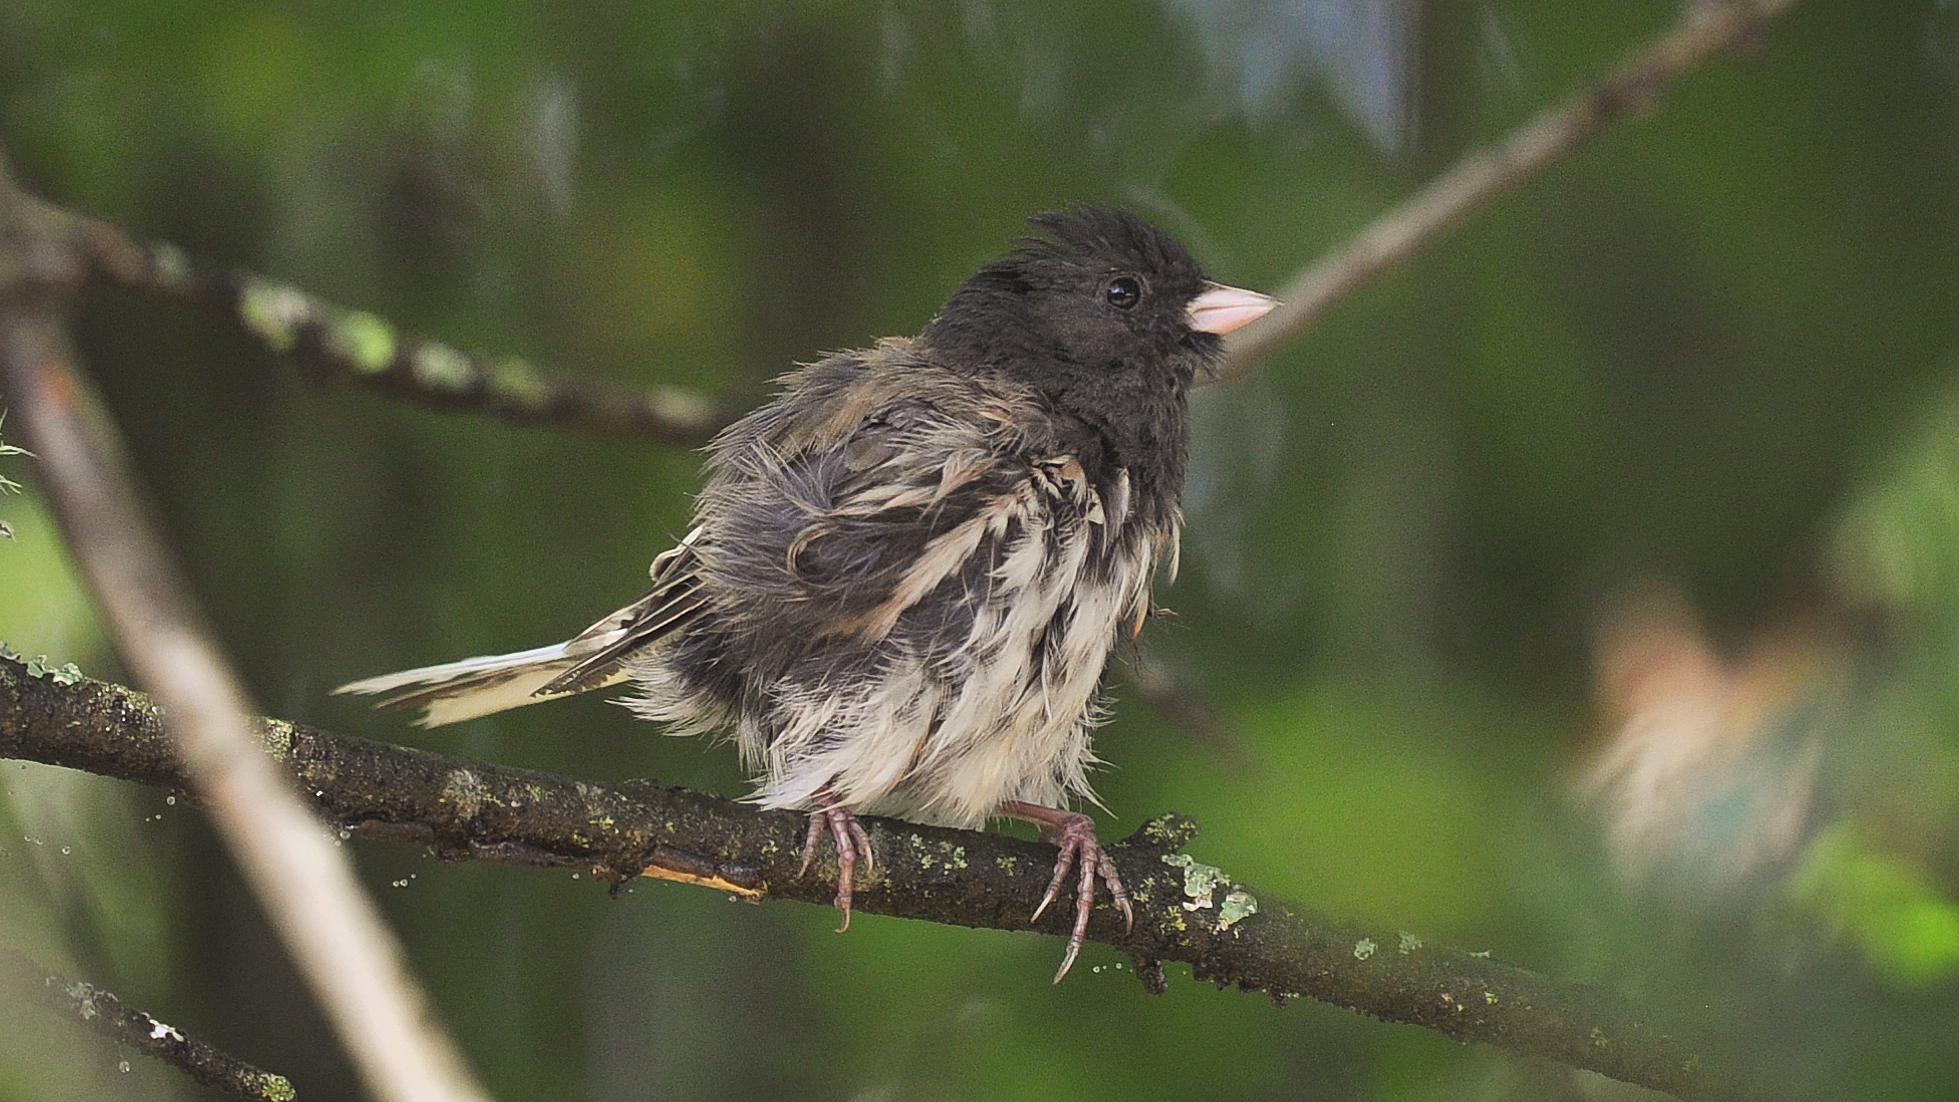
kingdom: Animalia
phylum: Chordata
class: Aves
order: Passeriformes
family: Passerellidae
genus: Junco
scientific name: Junco hyemalis
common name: Dark-eyed junco
